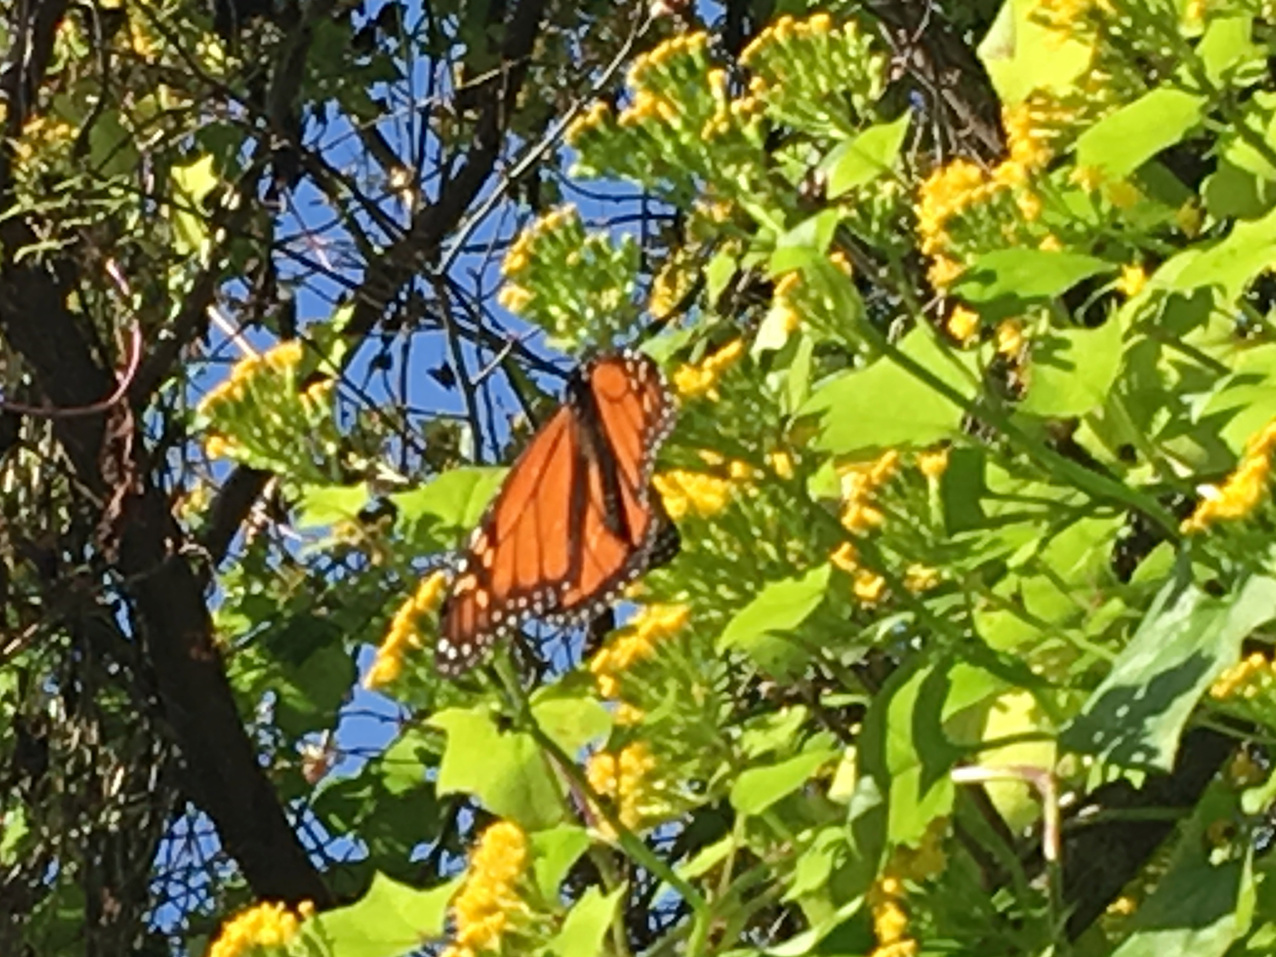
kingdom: Animalia
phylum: Arthropoda
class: Insecta
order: Lepidoptera
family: Nymphalidae
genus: Danaus
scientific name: Danaus plexippus
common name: Monarch
